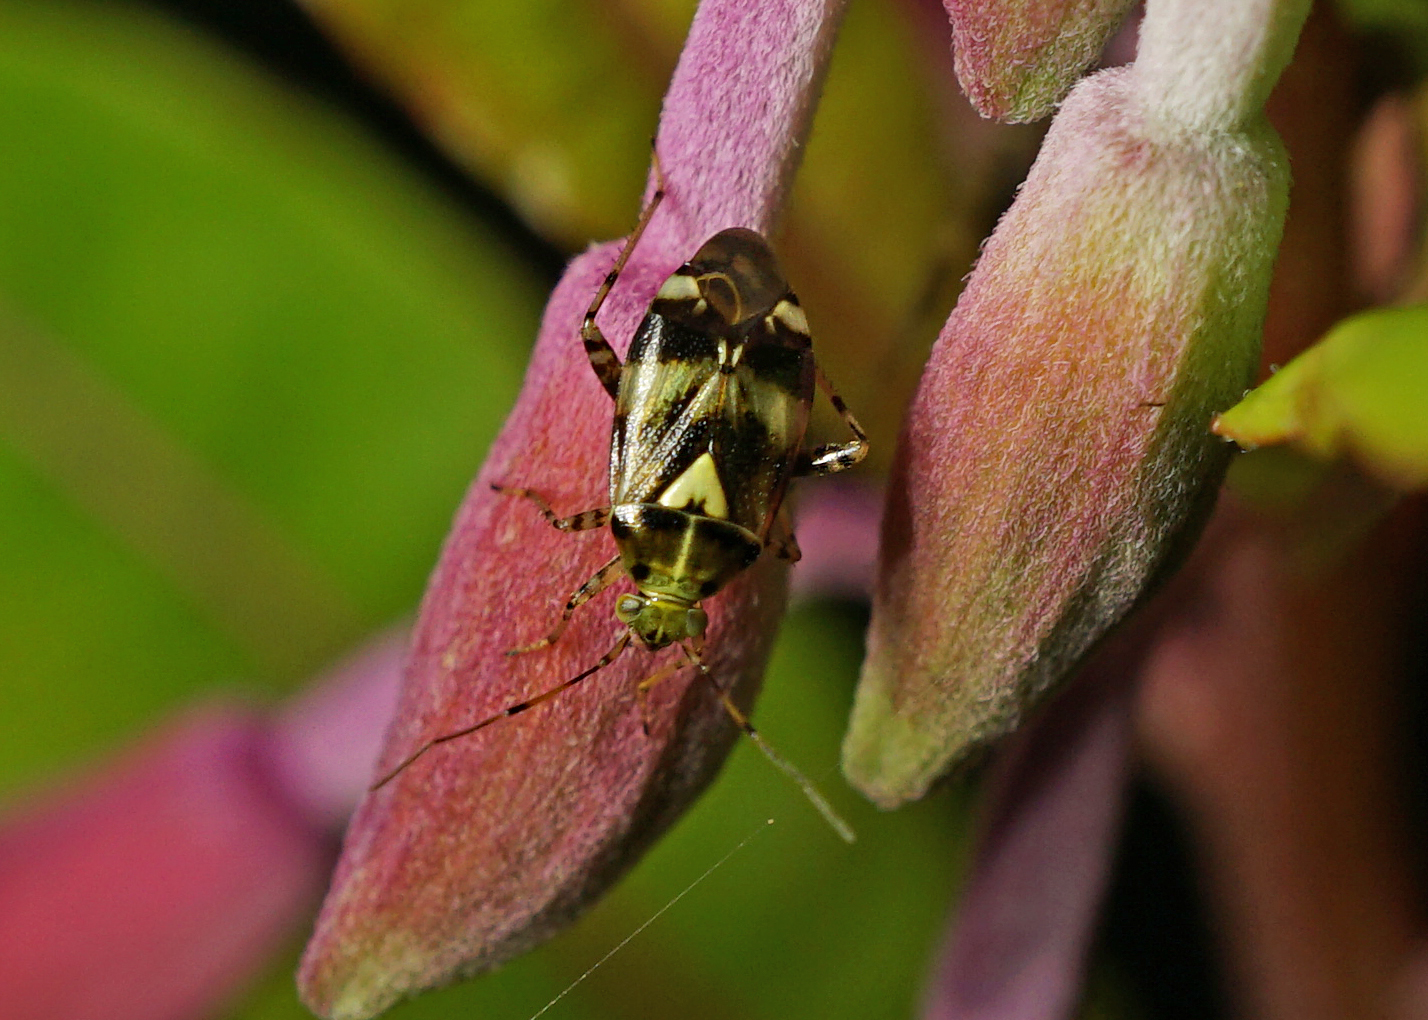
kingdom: Animalia
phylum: Arthropoda
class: Insecta
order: Hemiptera
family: Miridae
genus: Liocoris
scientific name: Liocoris tripustulatus
